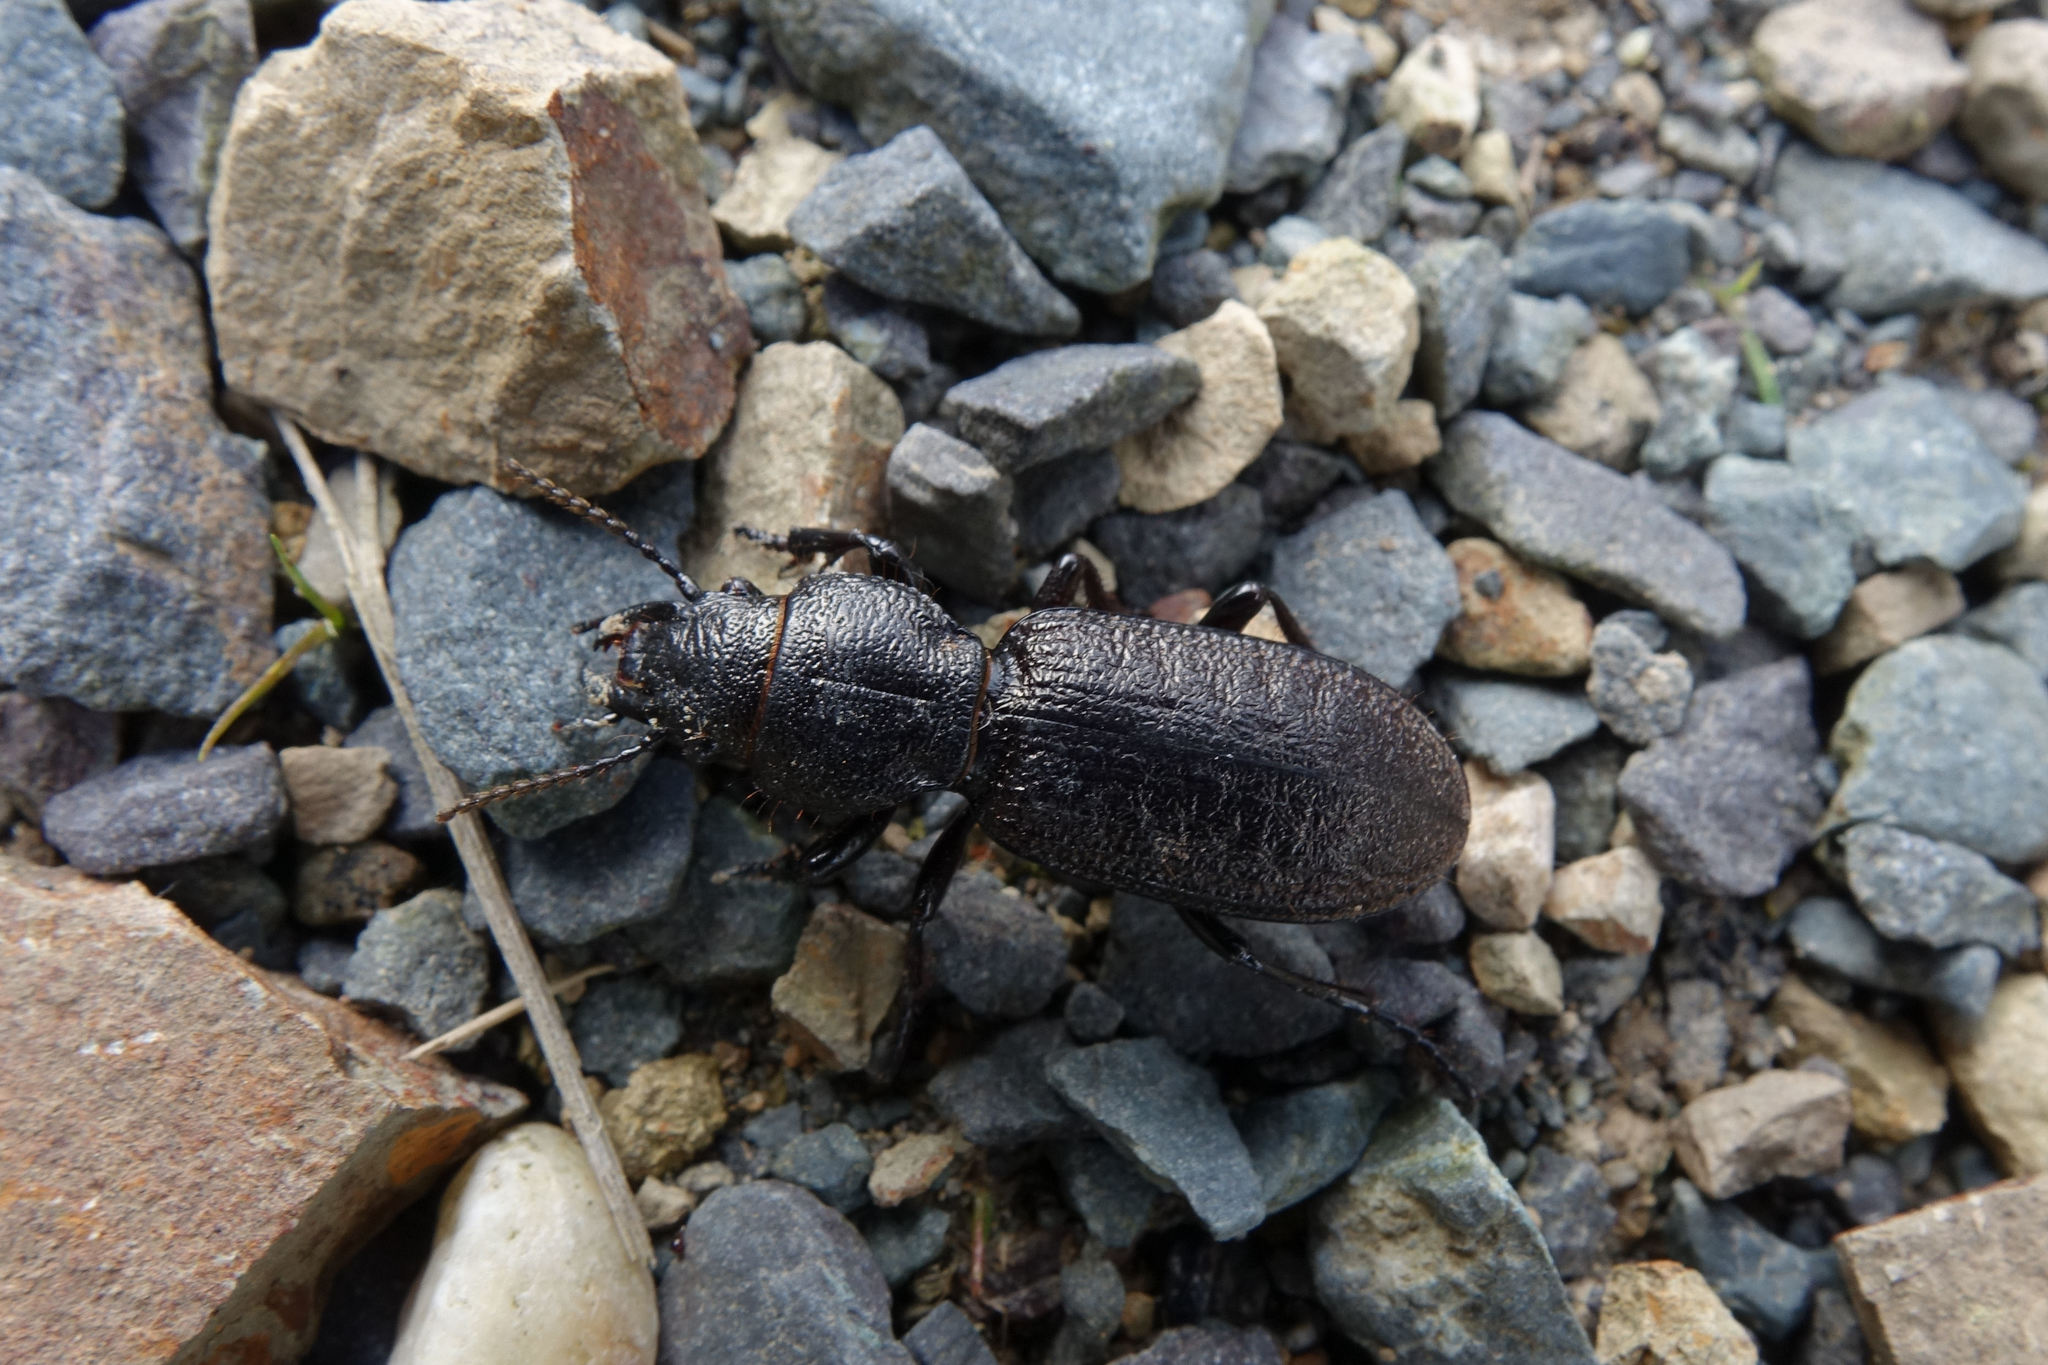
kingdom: Animalia
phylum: Arthropoda
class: Insecta
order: Coleoptera
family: Carabidae
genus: Mecodema
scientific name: Mecodema sculpturatum
